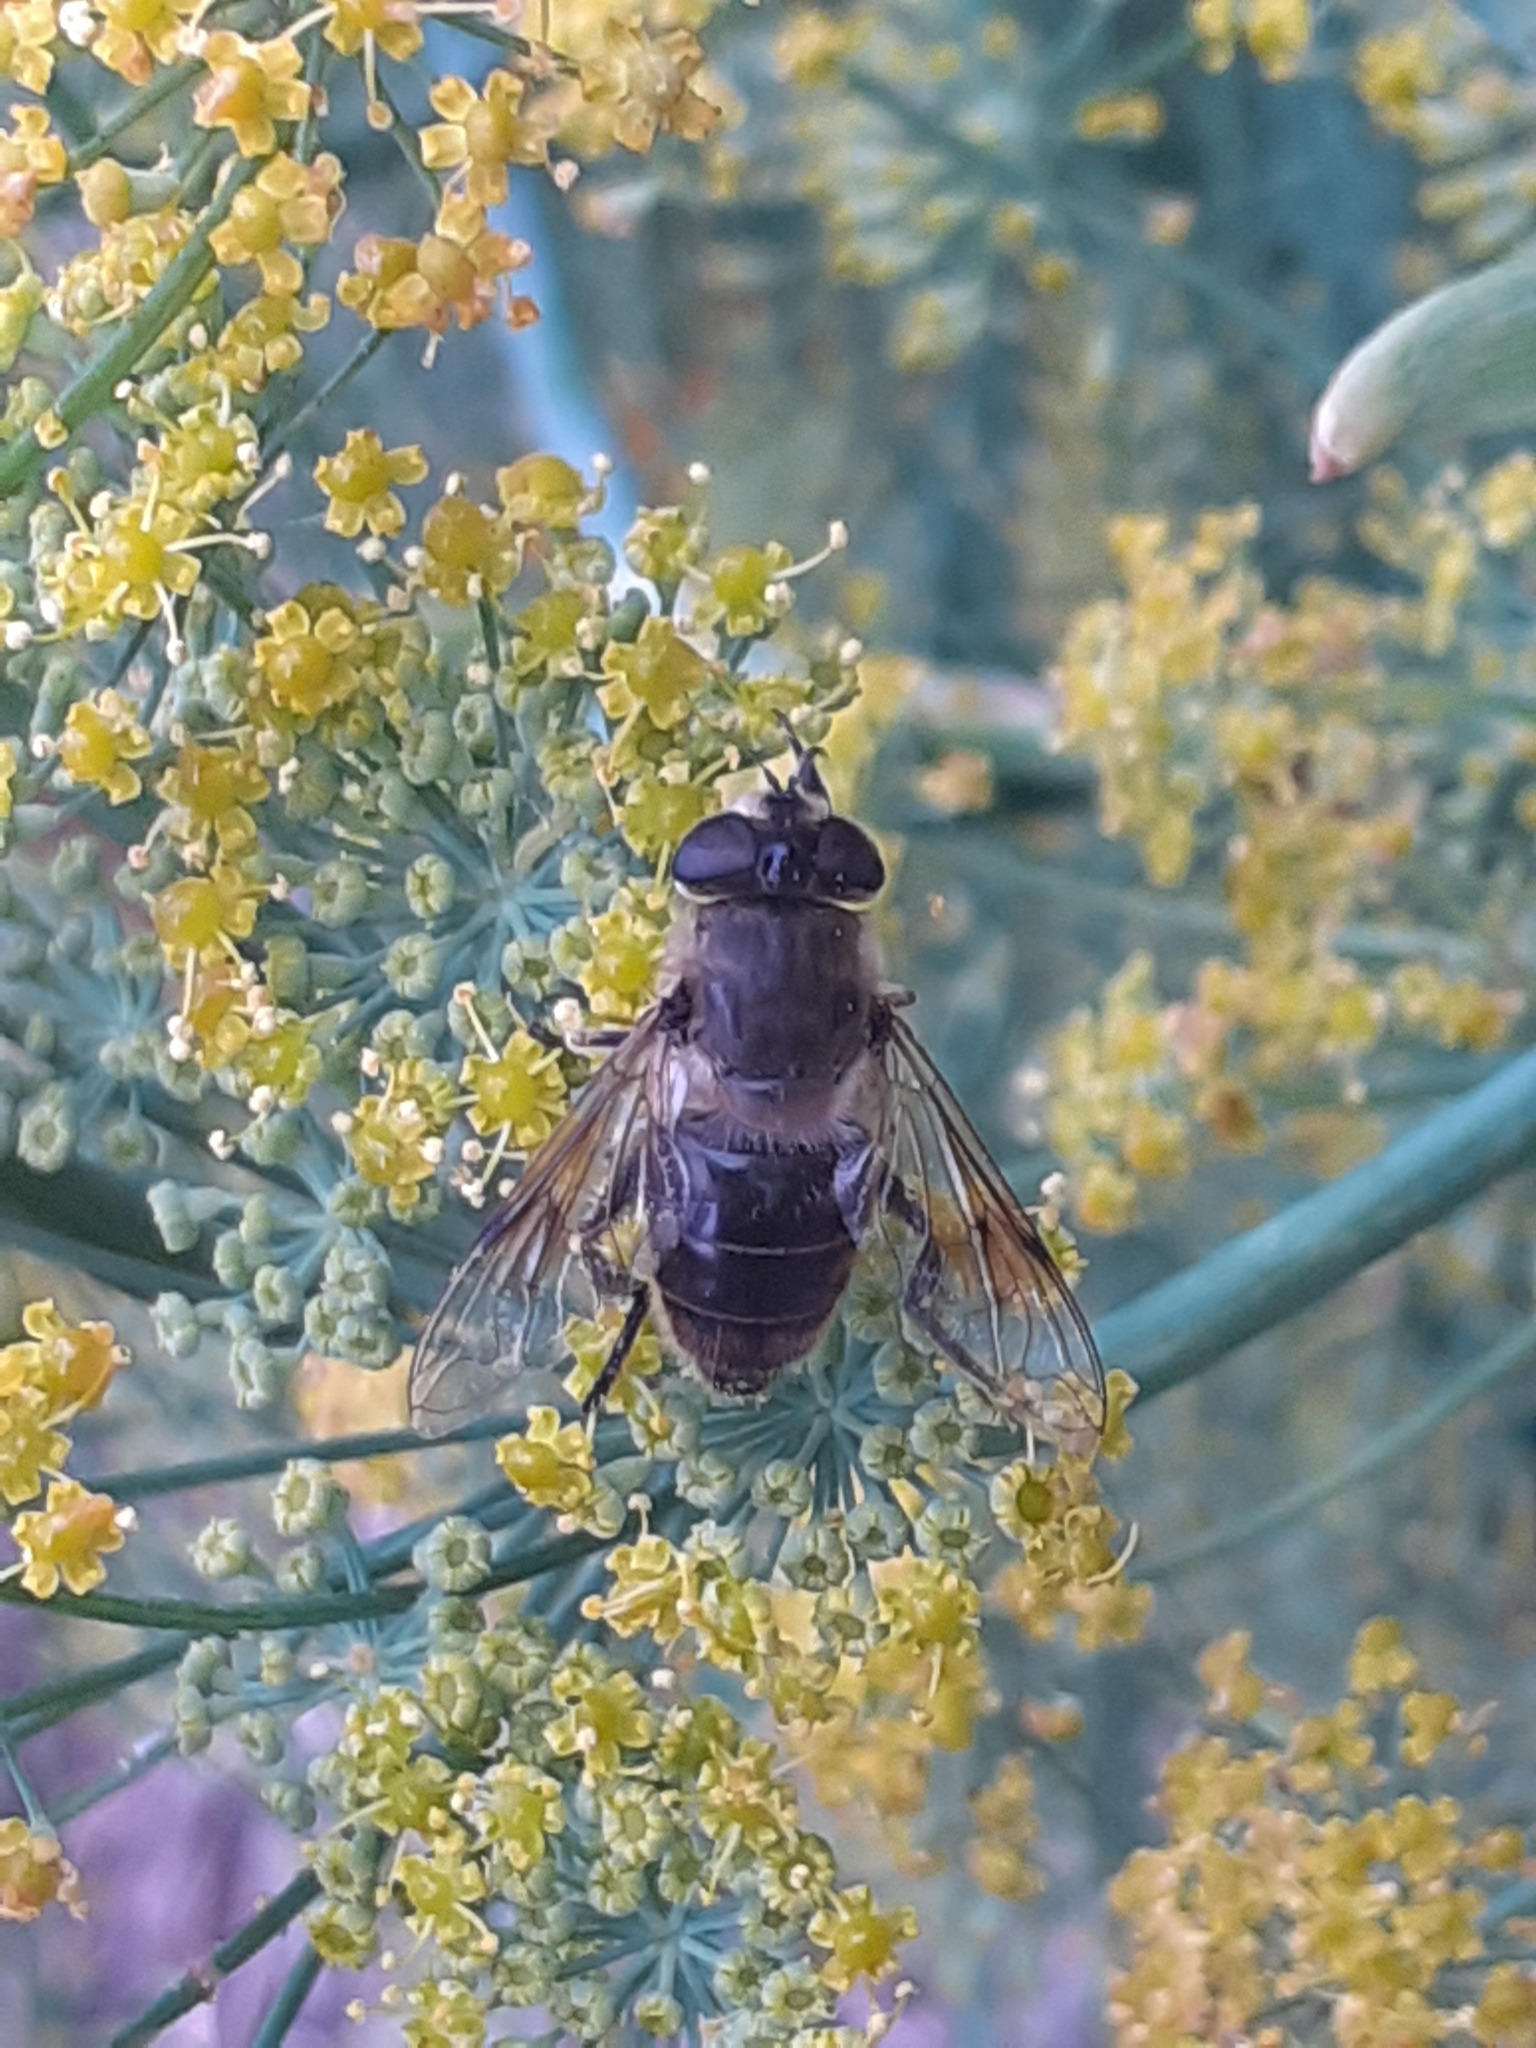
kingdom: Animalia
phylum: Arthropoda
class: Insecta
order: Diptera
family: Syrphidae
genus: Eristalis
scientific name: Eristalis tenax
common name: Drone fly
